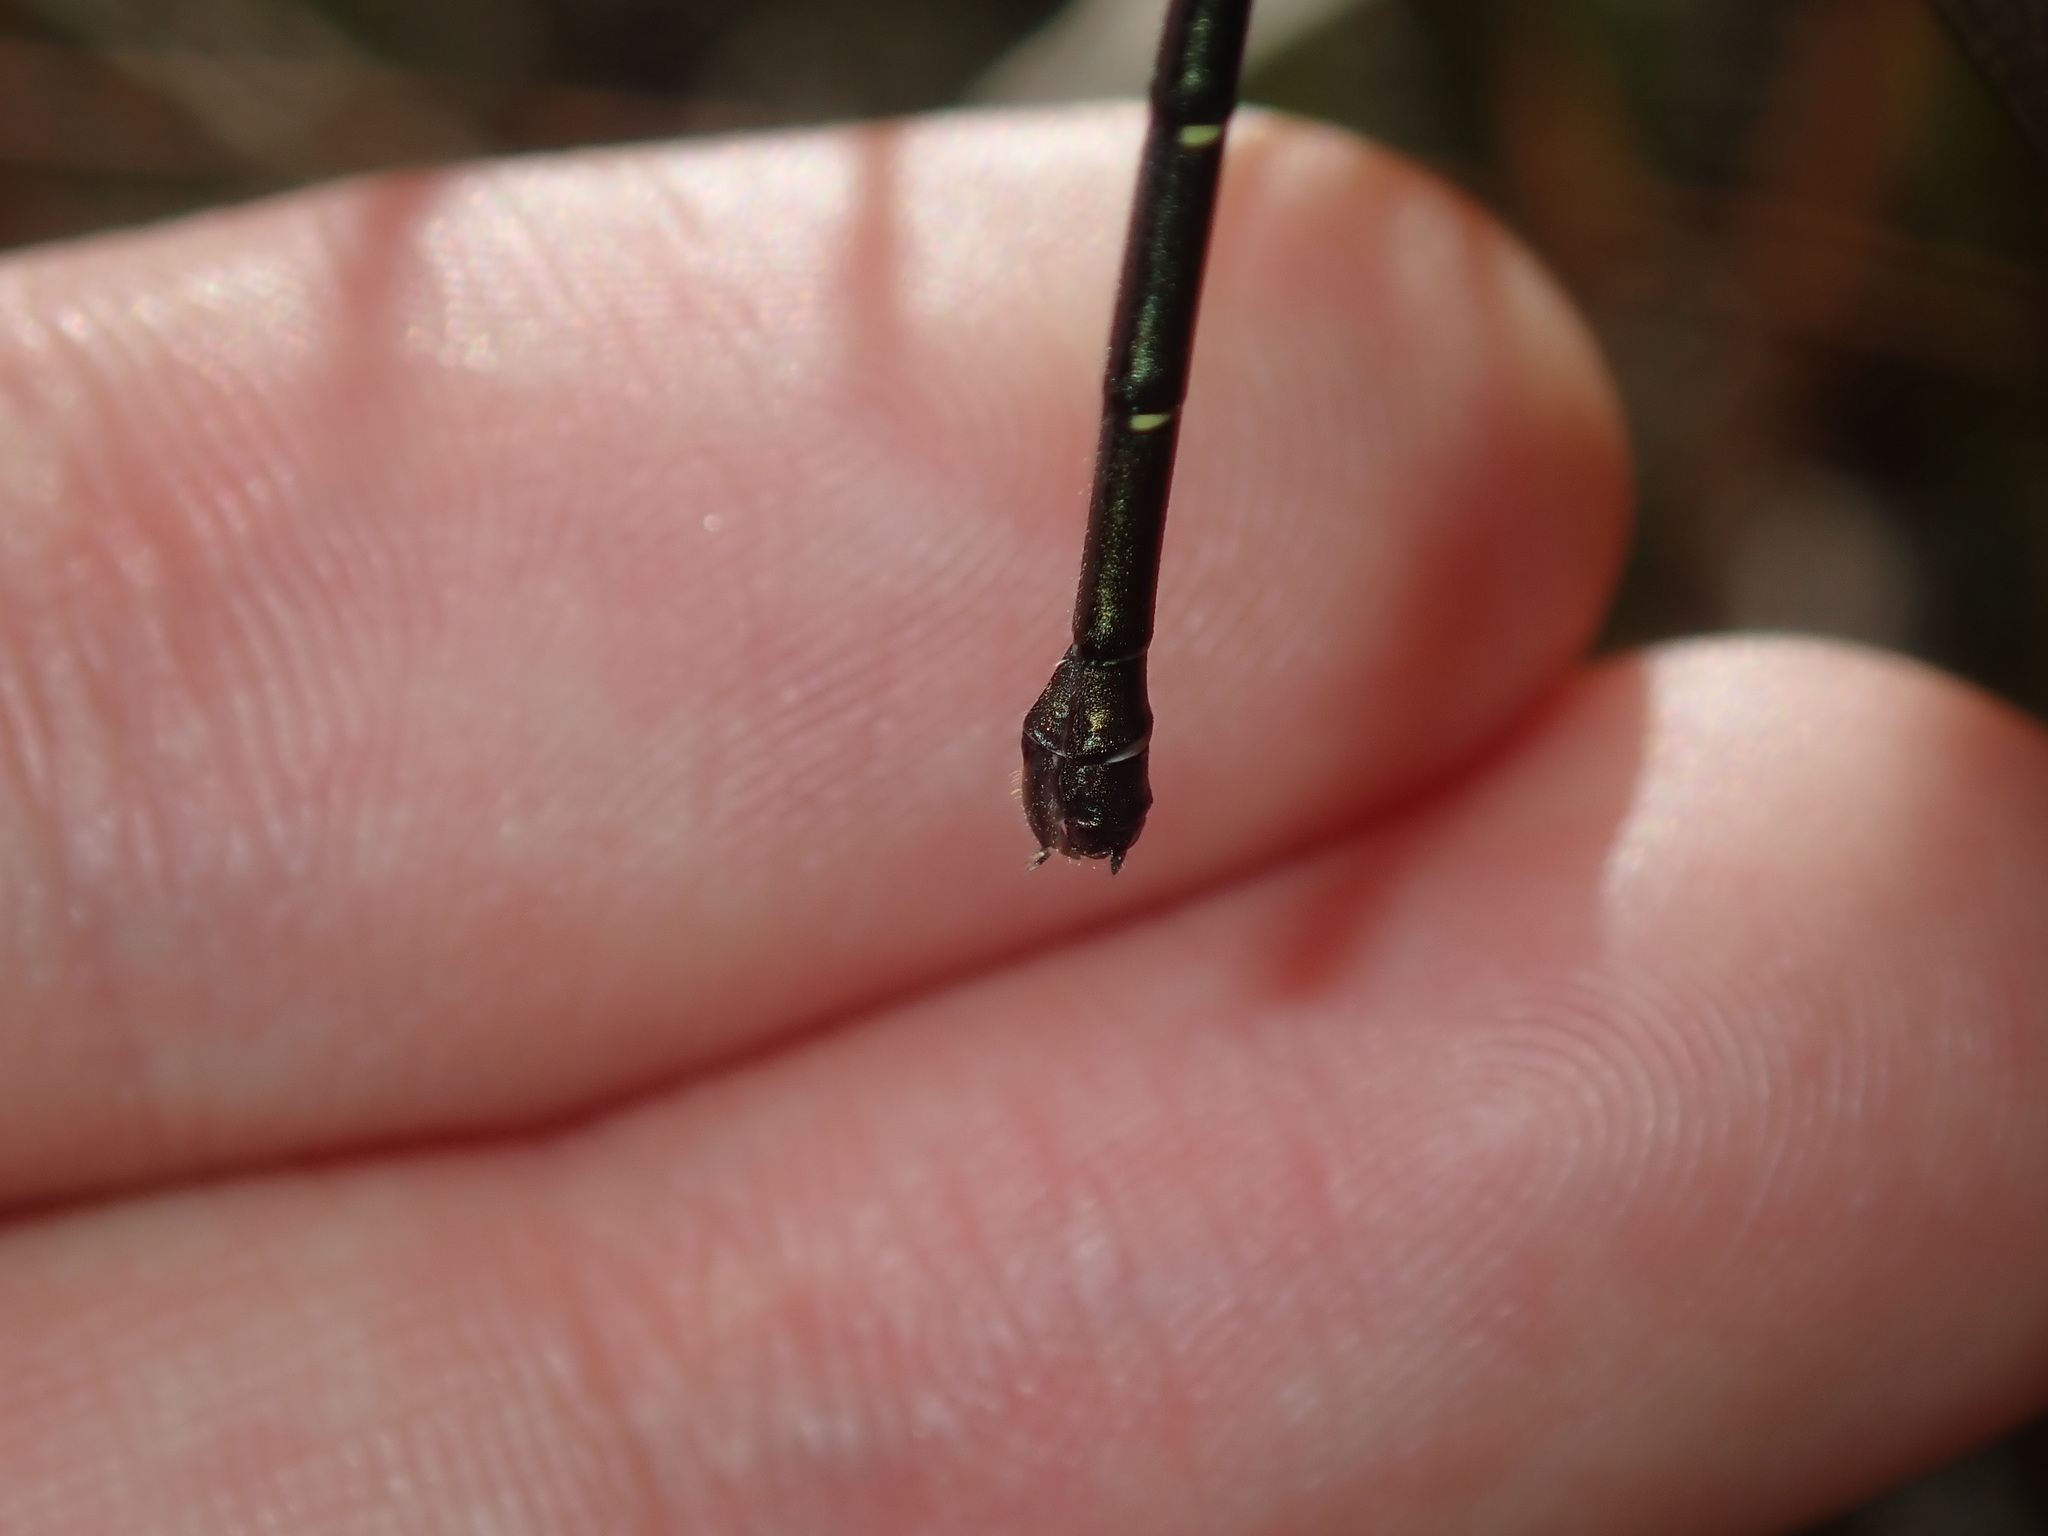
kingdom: Animalia
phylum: Arthropoda
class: Insecta
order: Odonata
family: Argiolestidae
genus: Austroargiolestes
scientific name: Austroargiolestes icteromelas
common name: Common flatwing
